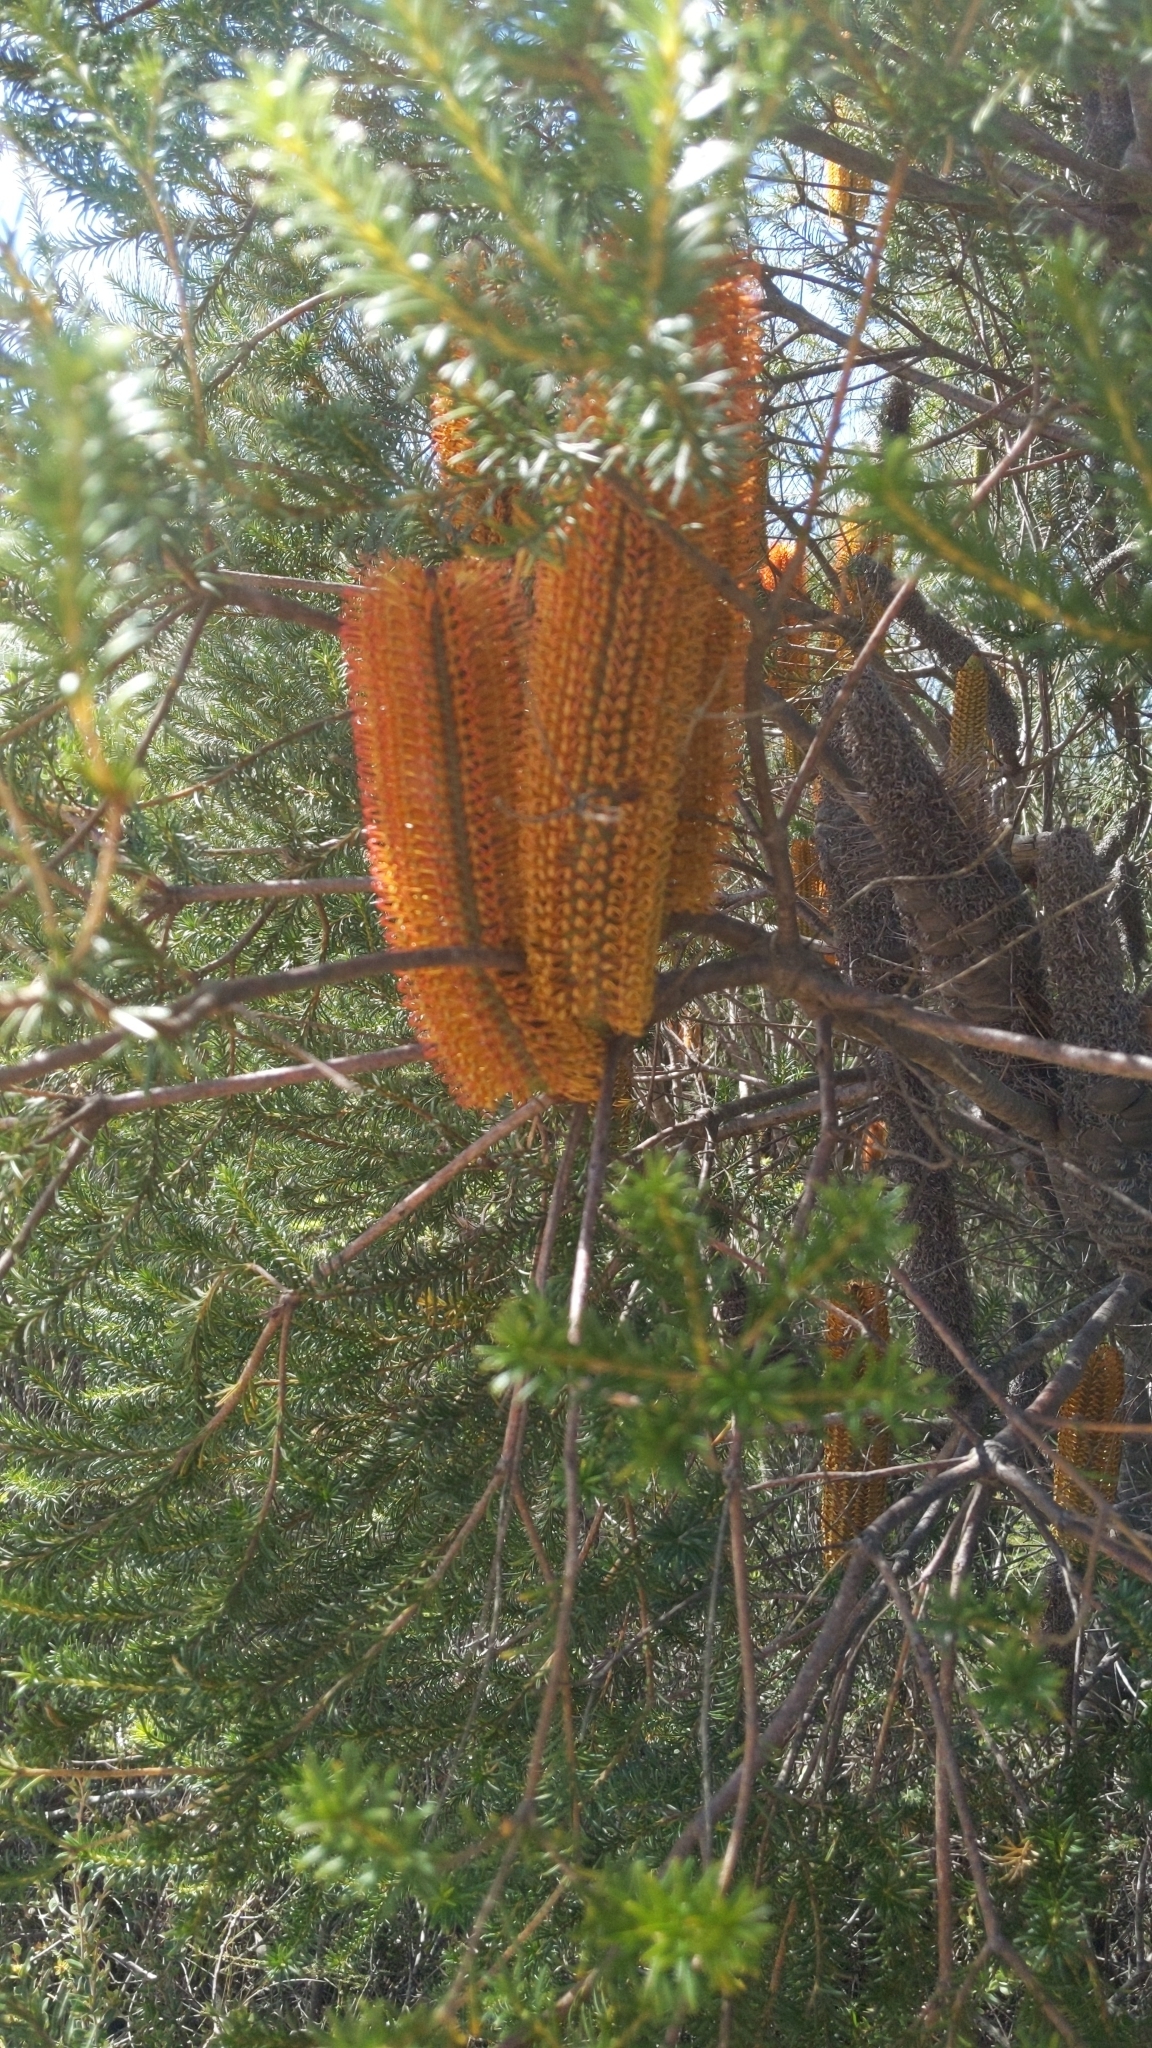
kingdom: Plantae
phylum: Tracheophyta
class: Magnoliopsida
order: Proteales
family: Proteaceae
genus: Banksia
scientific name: Banksia ericifolia
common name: Heath-leaf banksia
